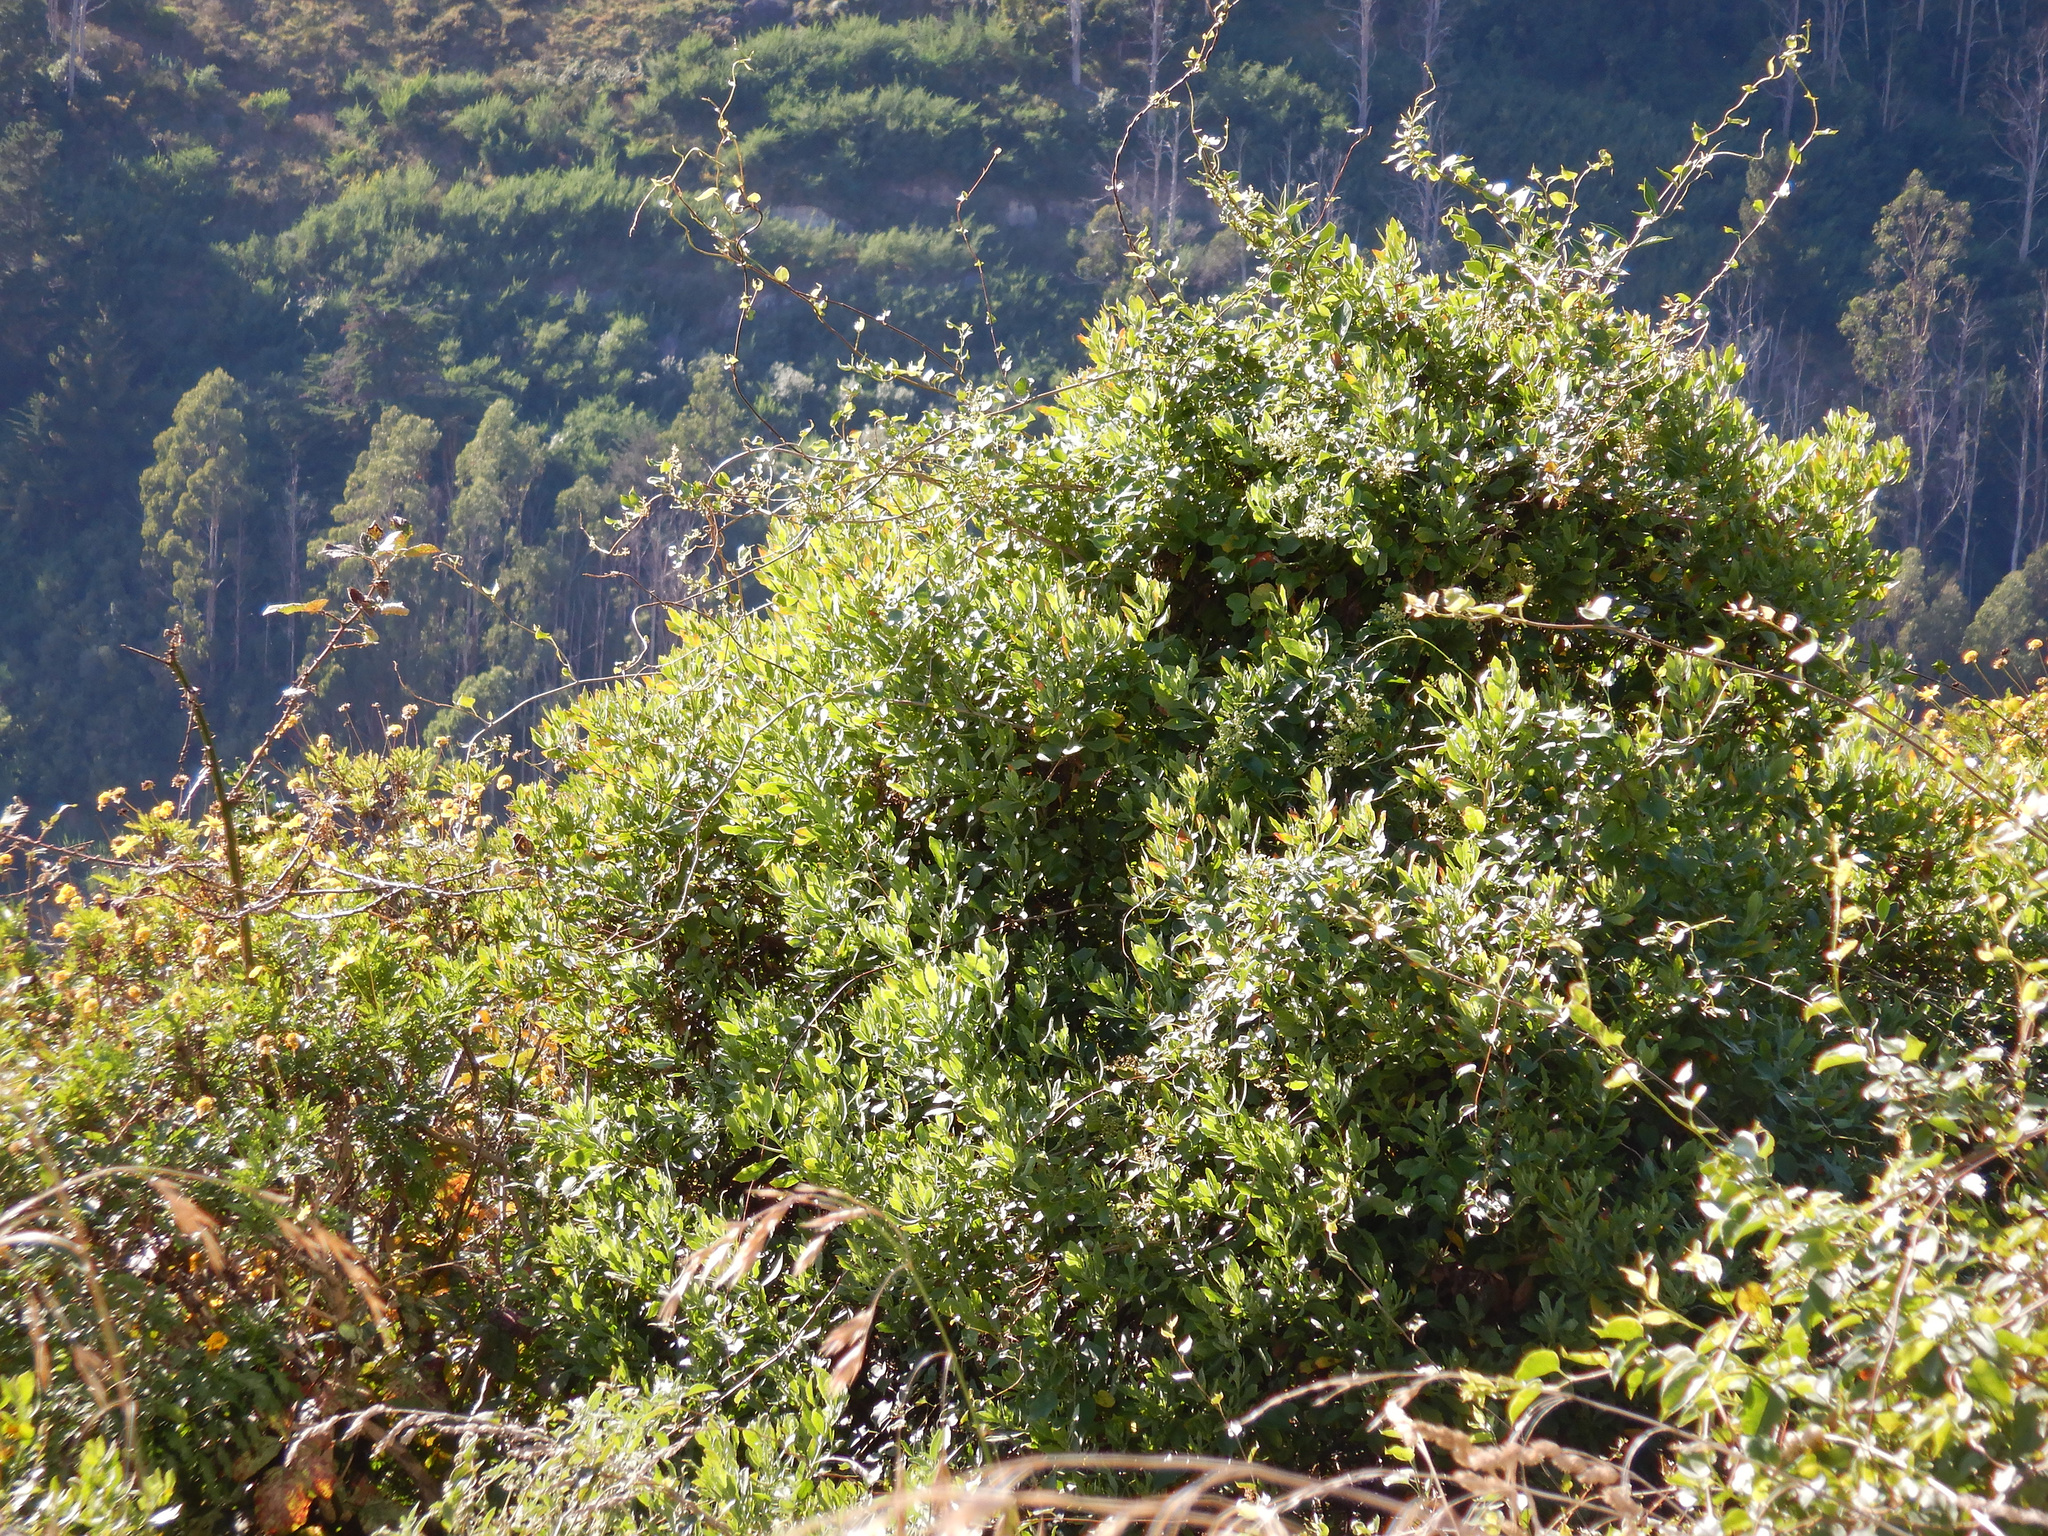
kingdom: Plantae
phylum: Tracheophyta
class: Magnoliopsida
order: Asterales
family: Asteraceae
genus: Osteospermum
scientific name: Osteospermum moniliferum
